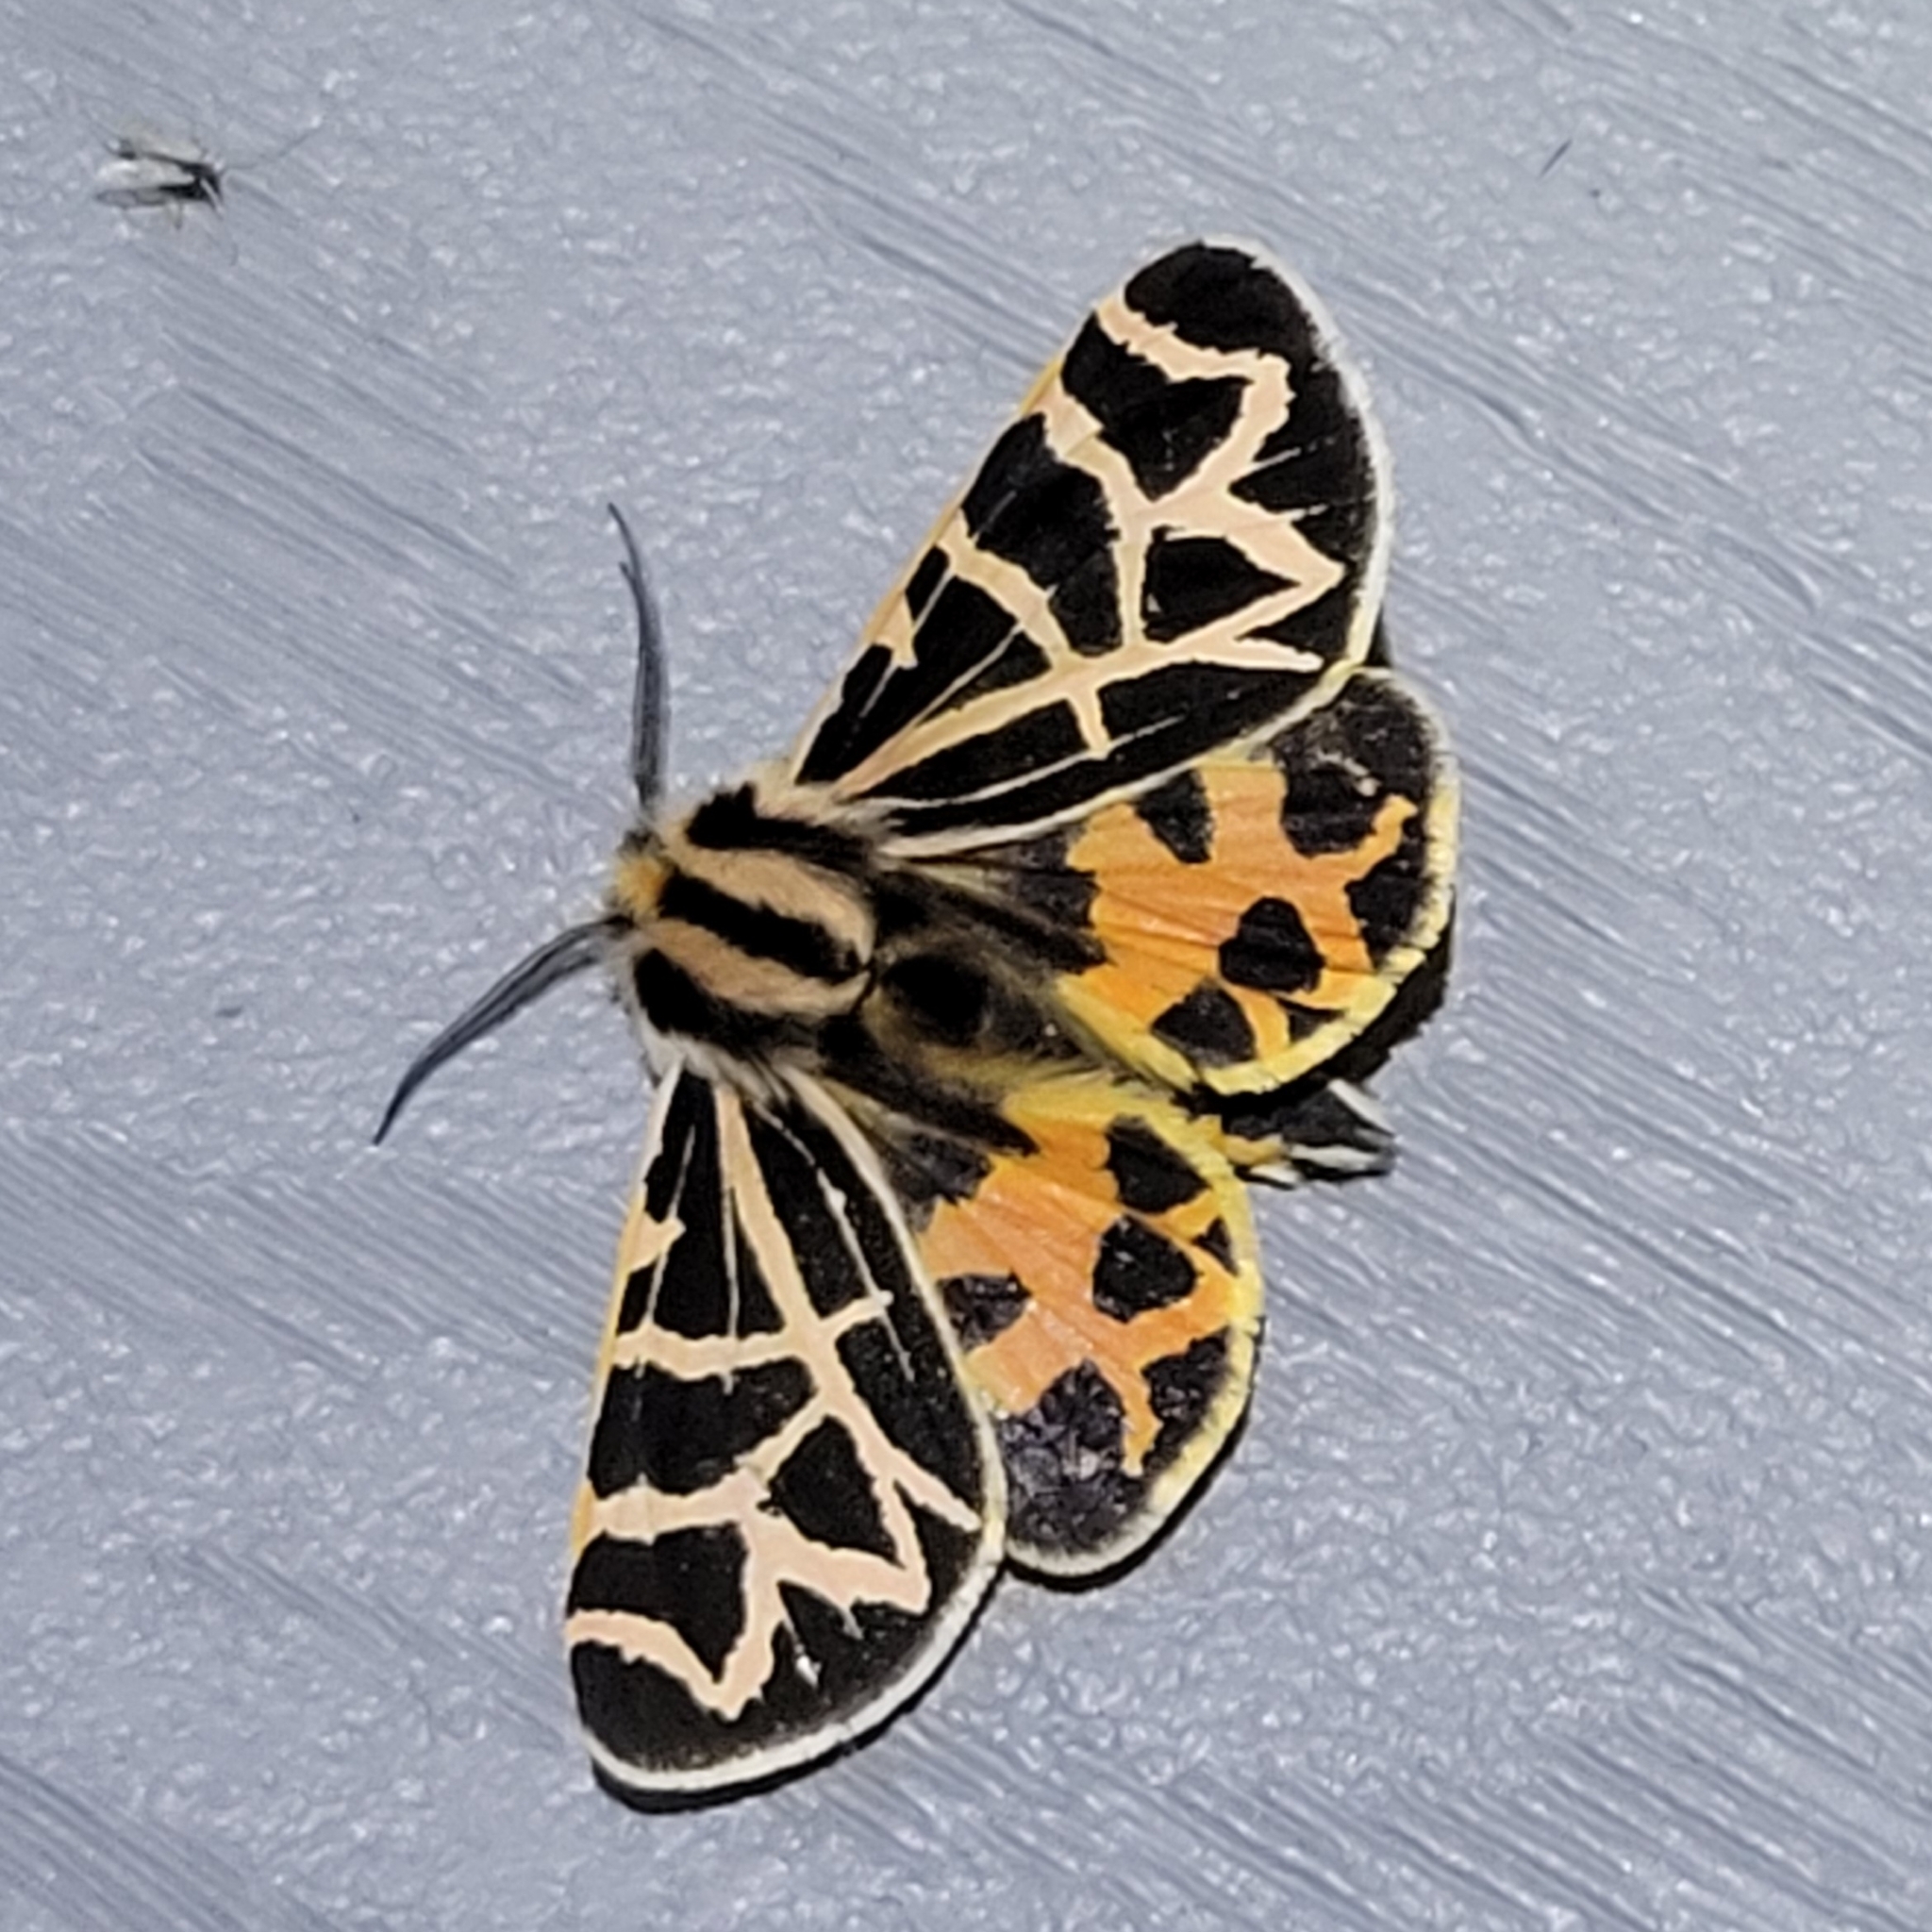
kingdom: Animalia
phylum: Arthropoda
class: Insecta
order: Lepidoptera
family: Erebidae
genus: Apantesis
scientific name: Apantesis
